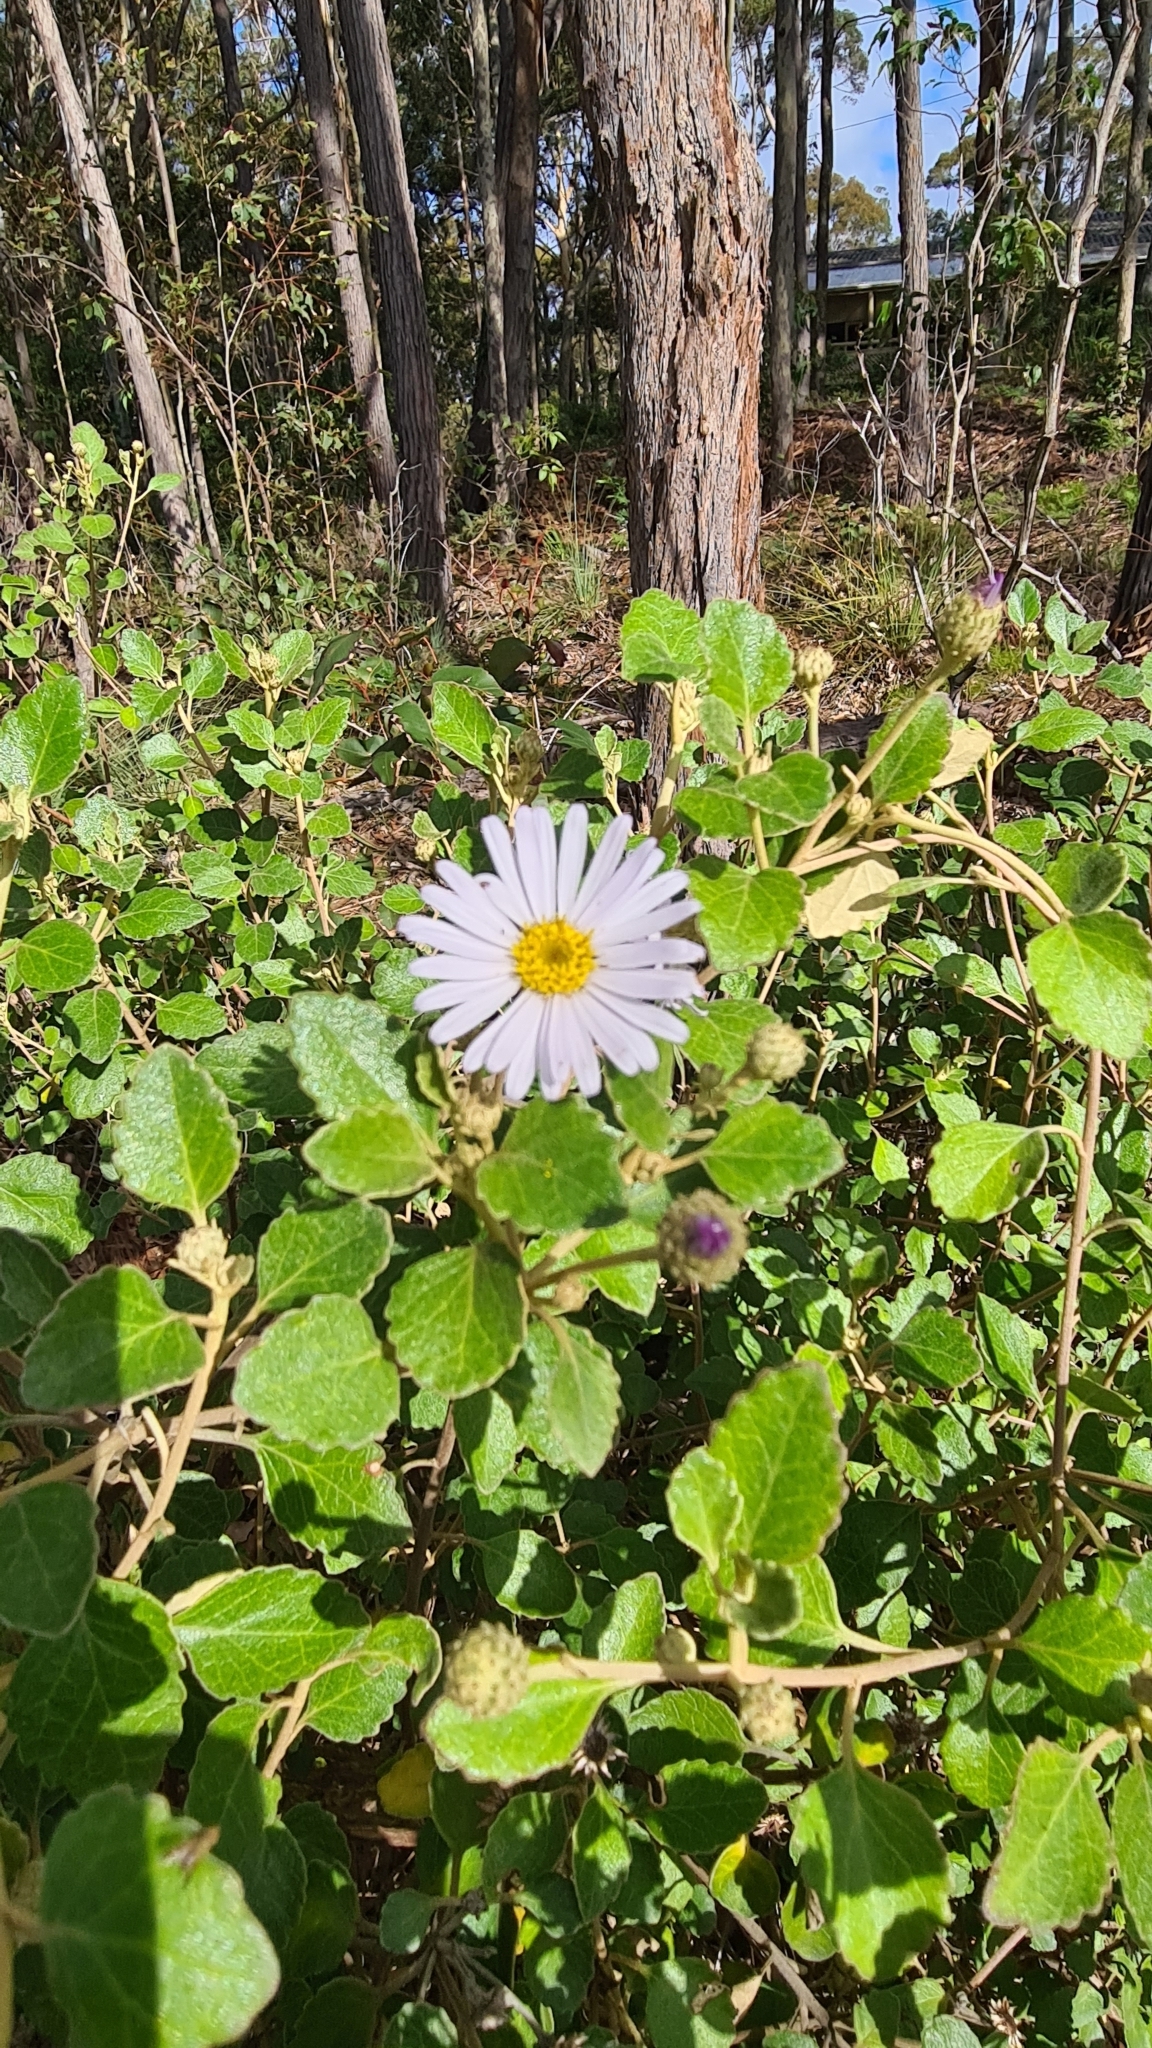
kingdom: Plantae
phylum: Tracheophyta
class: Magnoliopsida
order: Asterales
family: Asteraceae
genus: Olearia
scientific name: Olearia tomentosa
